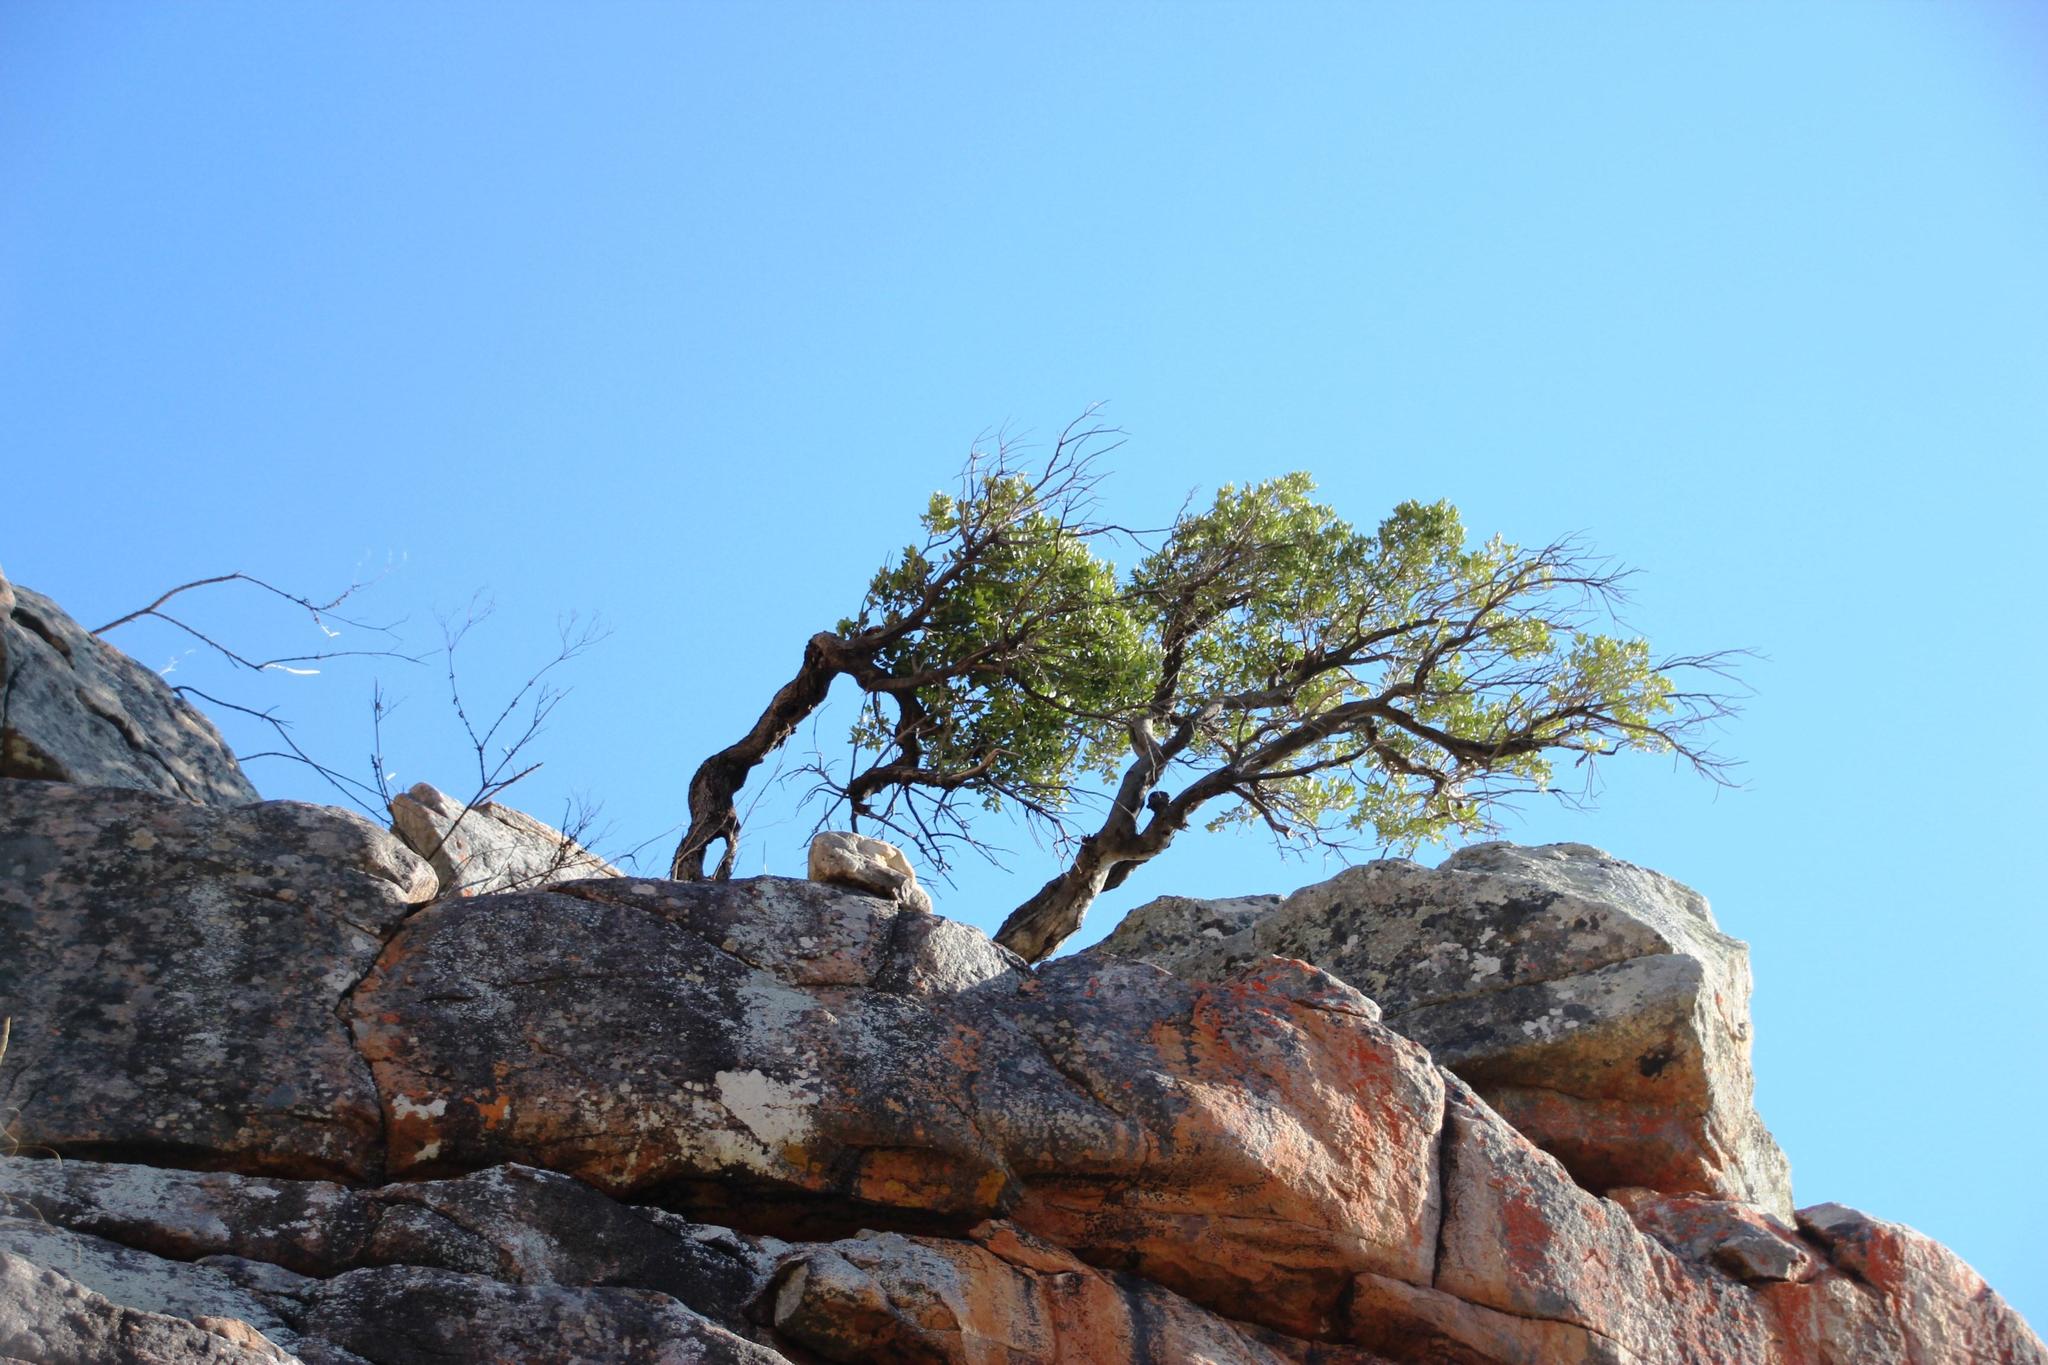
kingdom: Plantae
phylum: Tracheophyta
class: Magnoliopsida
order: Celastrales
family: Celastraceae
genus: Gymnosporia
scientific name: Gymnosporia laurina
